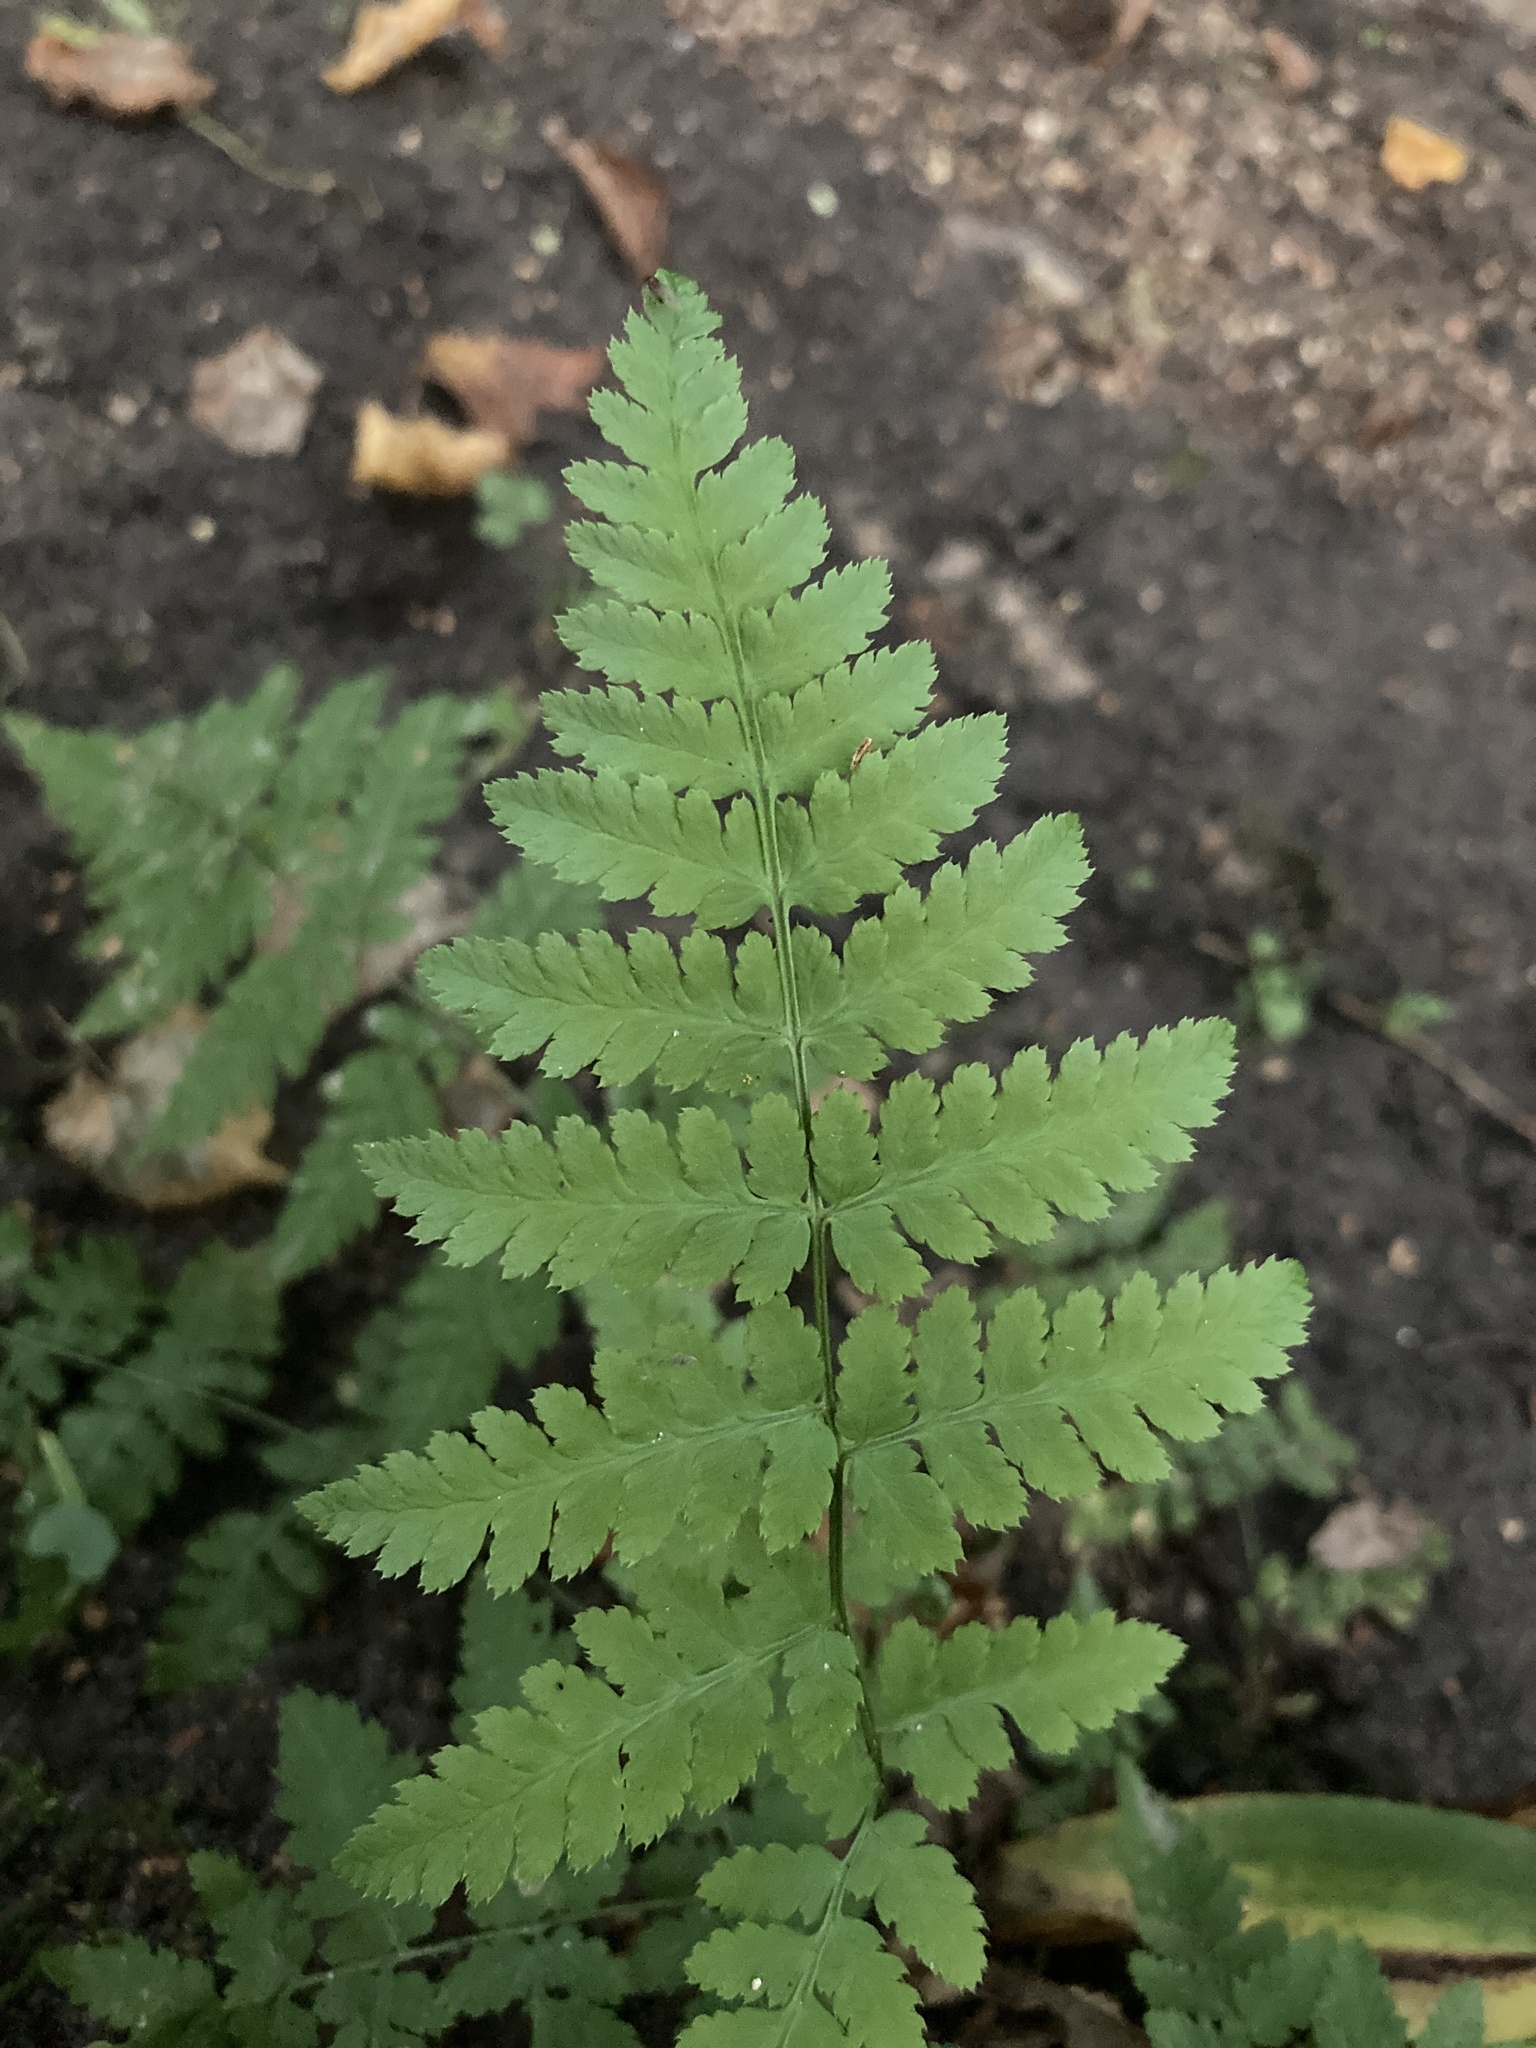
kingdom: Plantae
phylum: Tracheophyta
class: Polypodiopsida
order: Polypodiales
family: Dryopteridaceae
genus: Dryopteris
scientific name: Dryopteris carthusiana
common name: Narrow buckler-fern
